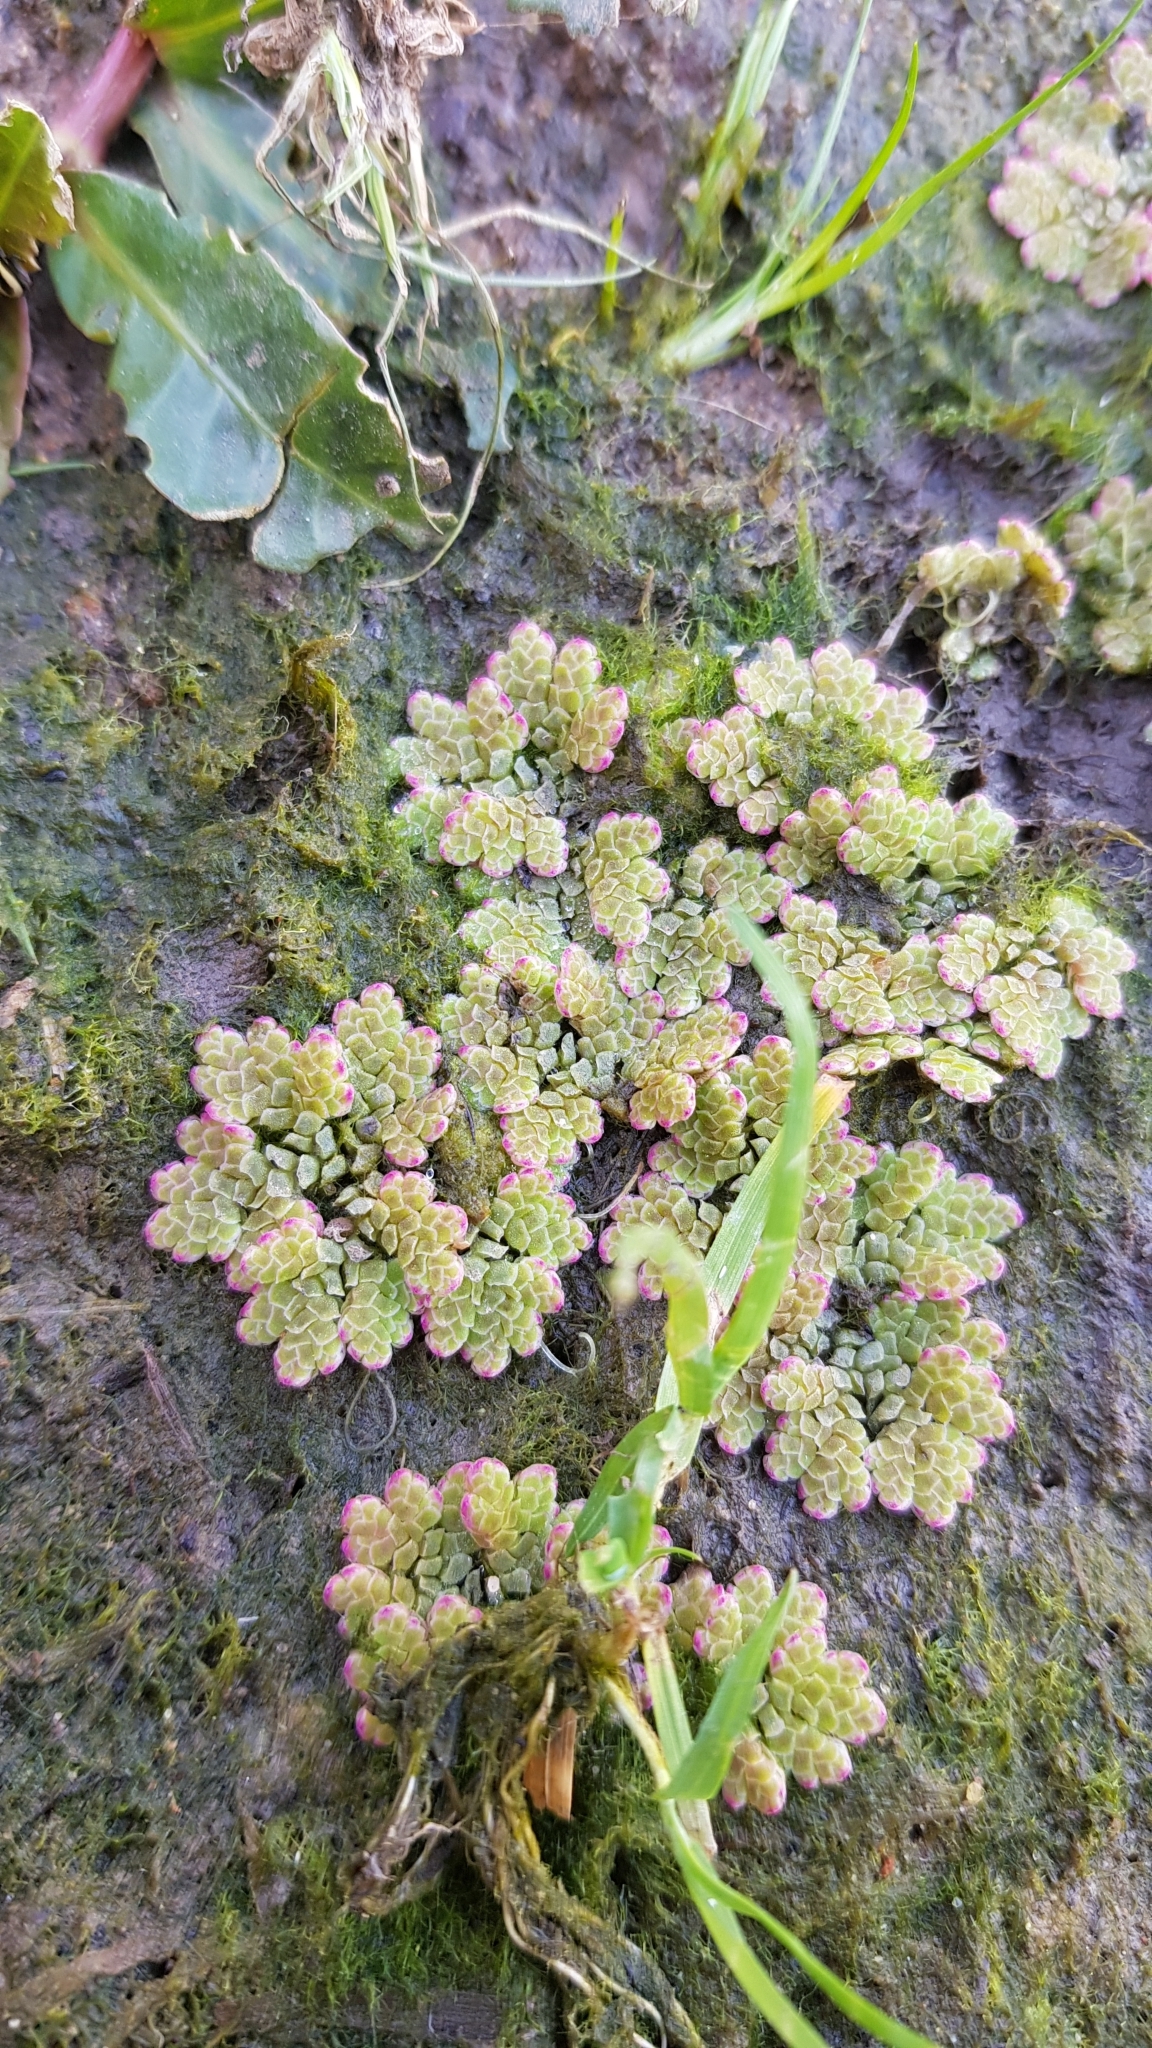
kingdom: Plantae
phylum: Tracheophyta
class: Polypodiopsida
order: Salviniales
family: Salviniaceae
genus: Azolla
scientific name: Azolla rubra
